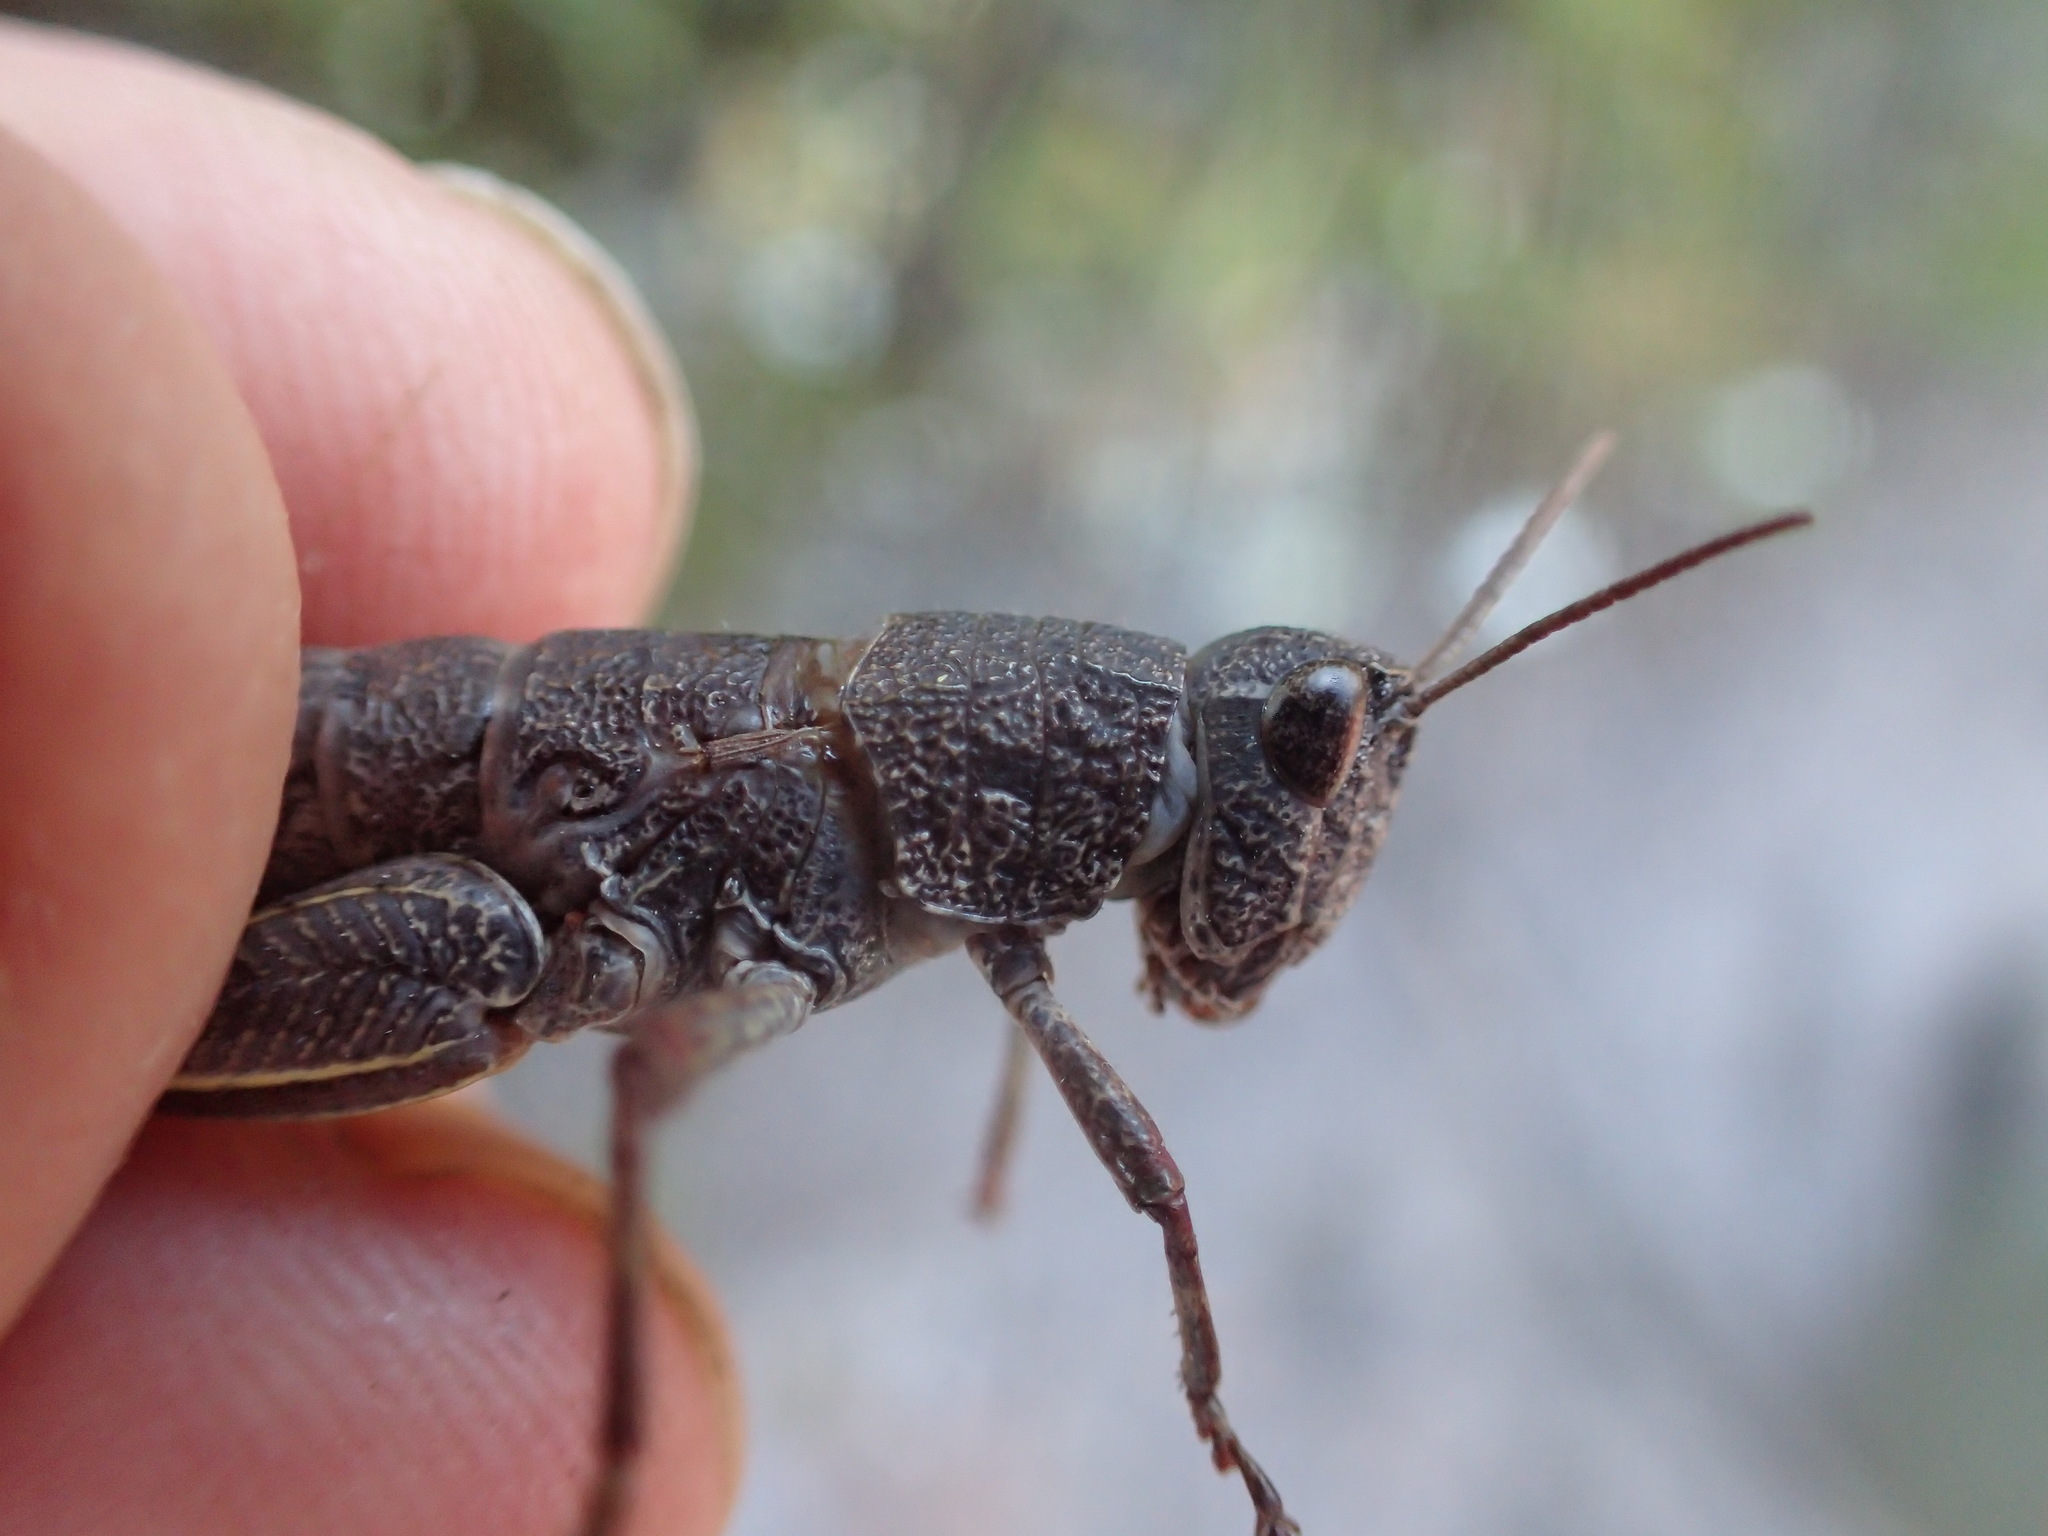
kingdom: Animalia
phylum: Arthropoda
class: Insecta
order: Orthoptera
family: Acrididae
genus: Tasmaniacris
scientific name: Tasmaniacris tasmaniensis
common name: Tasmanian grasshopper
